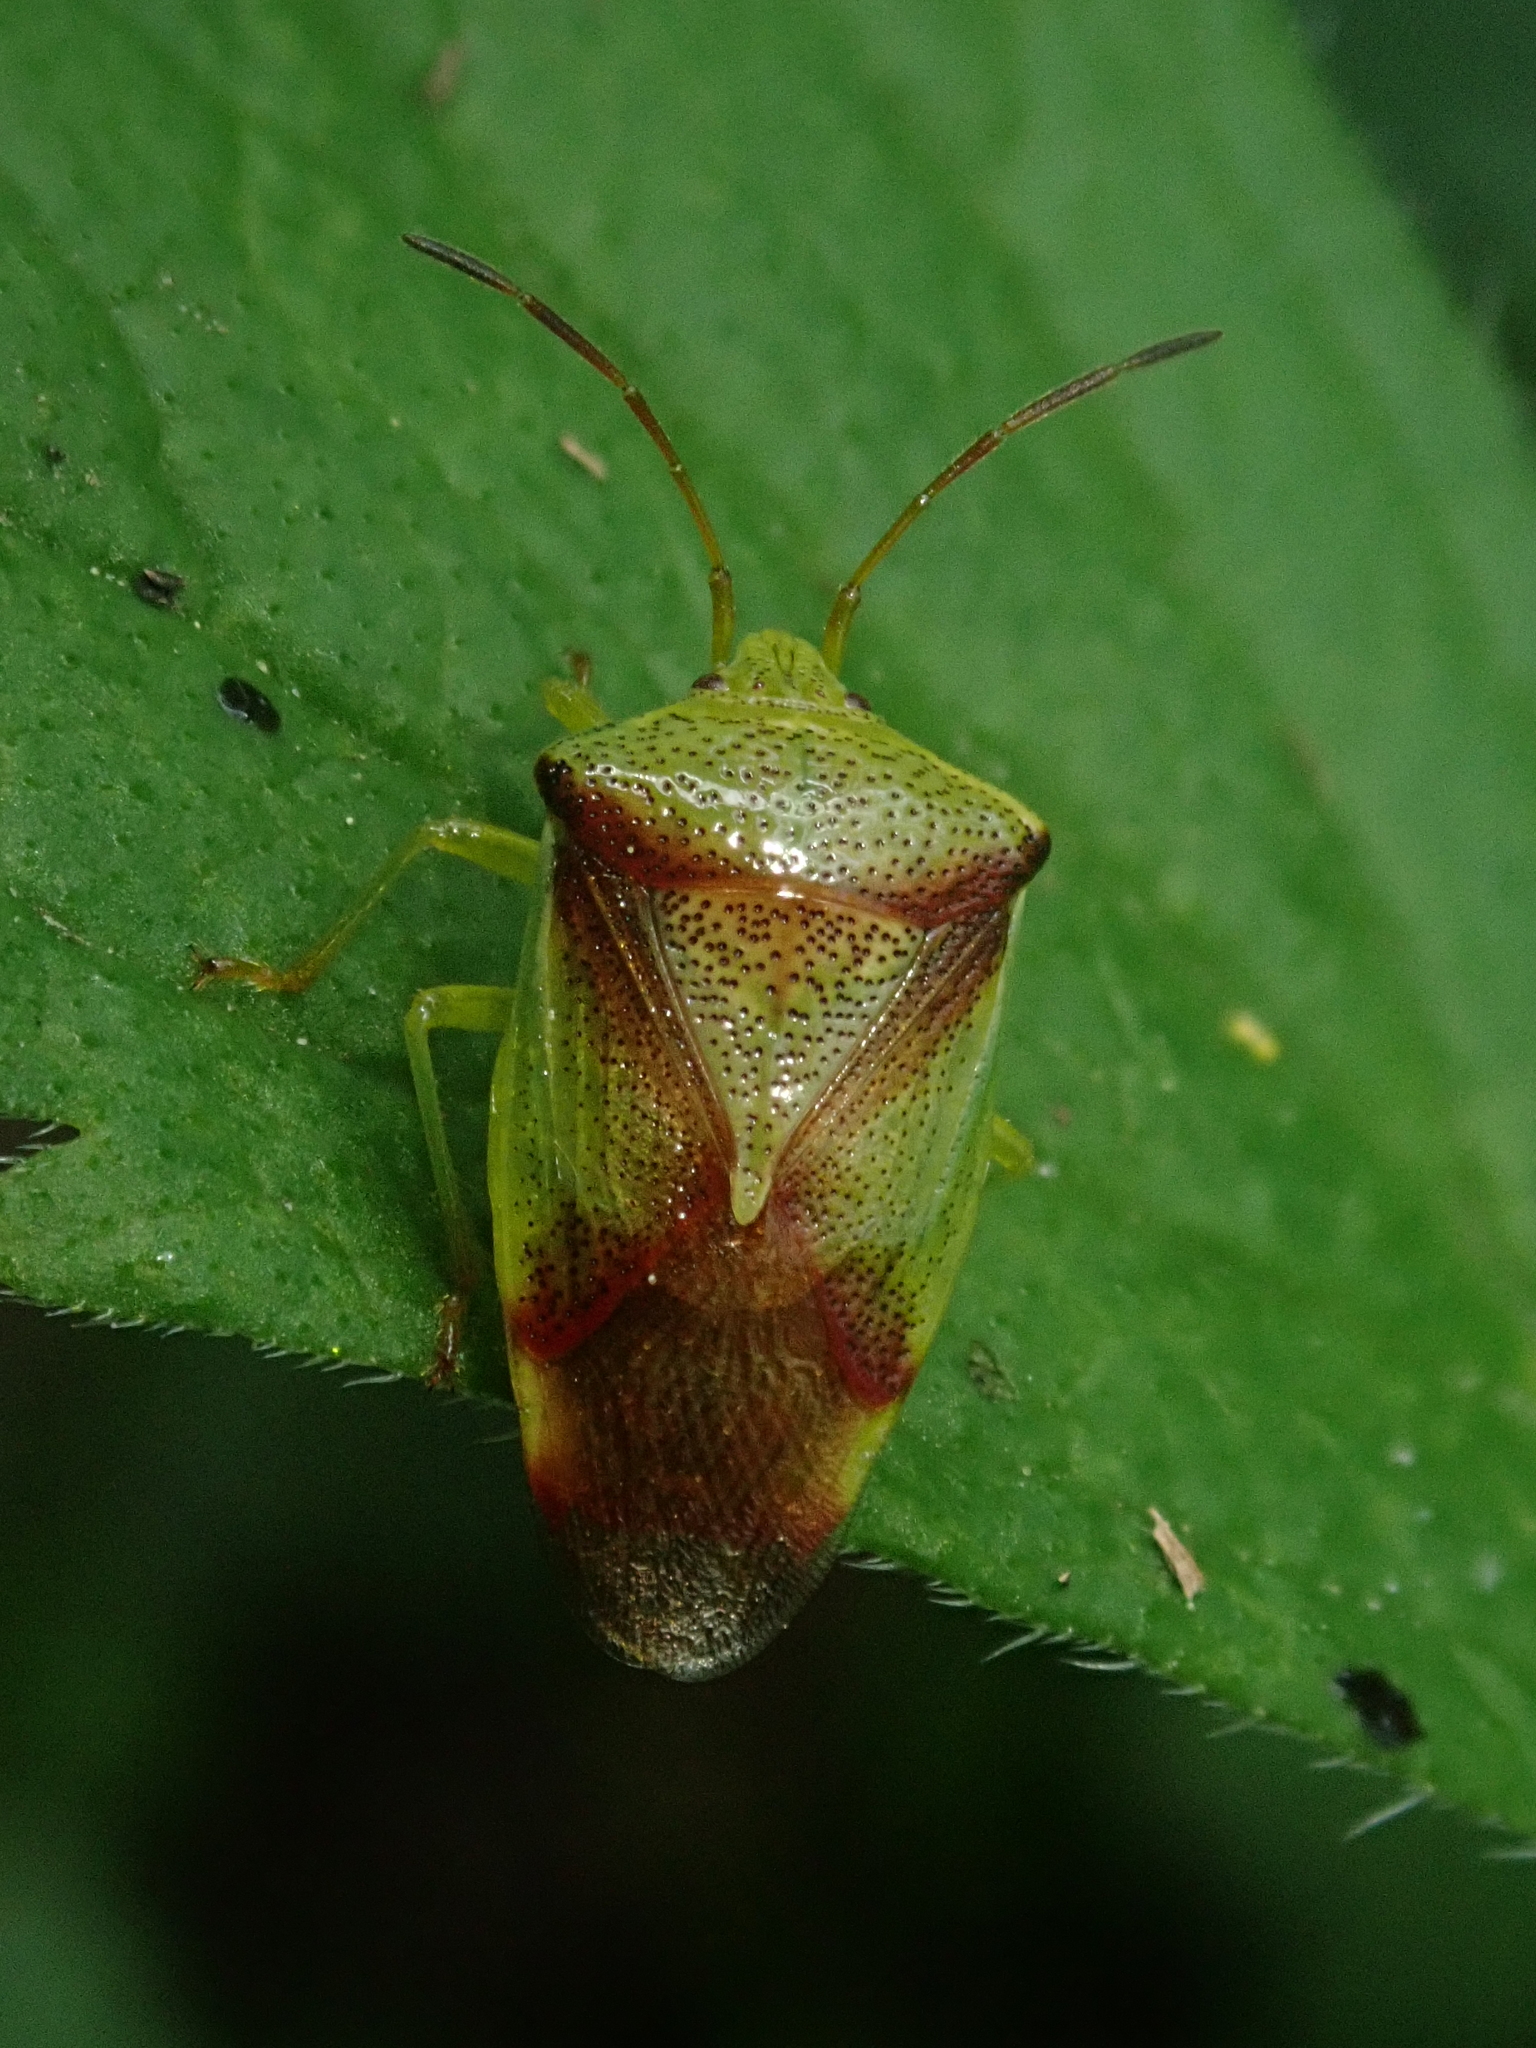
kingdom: Animalia
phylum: Arthropoda
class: Insecta
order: Hemiptera
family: Acanthosomatidae
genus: Elasmostethus
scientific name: Elasmostethus cruciatus
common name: Red-cross shield bug
